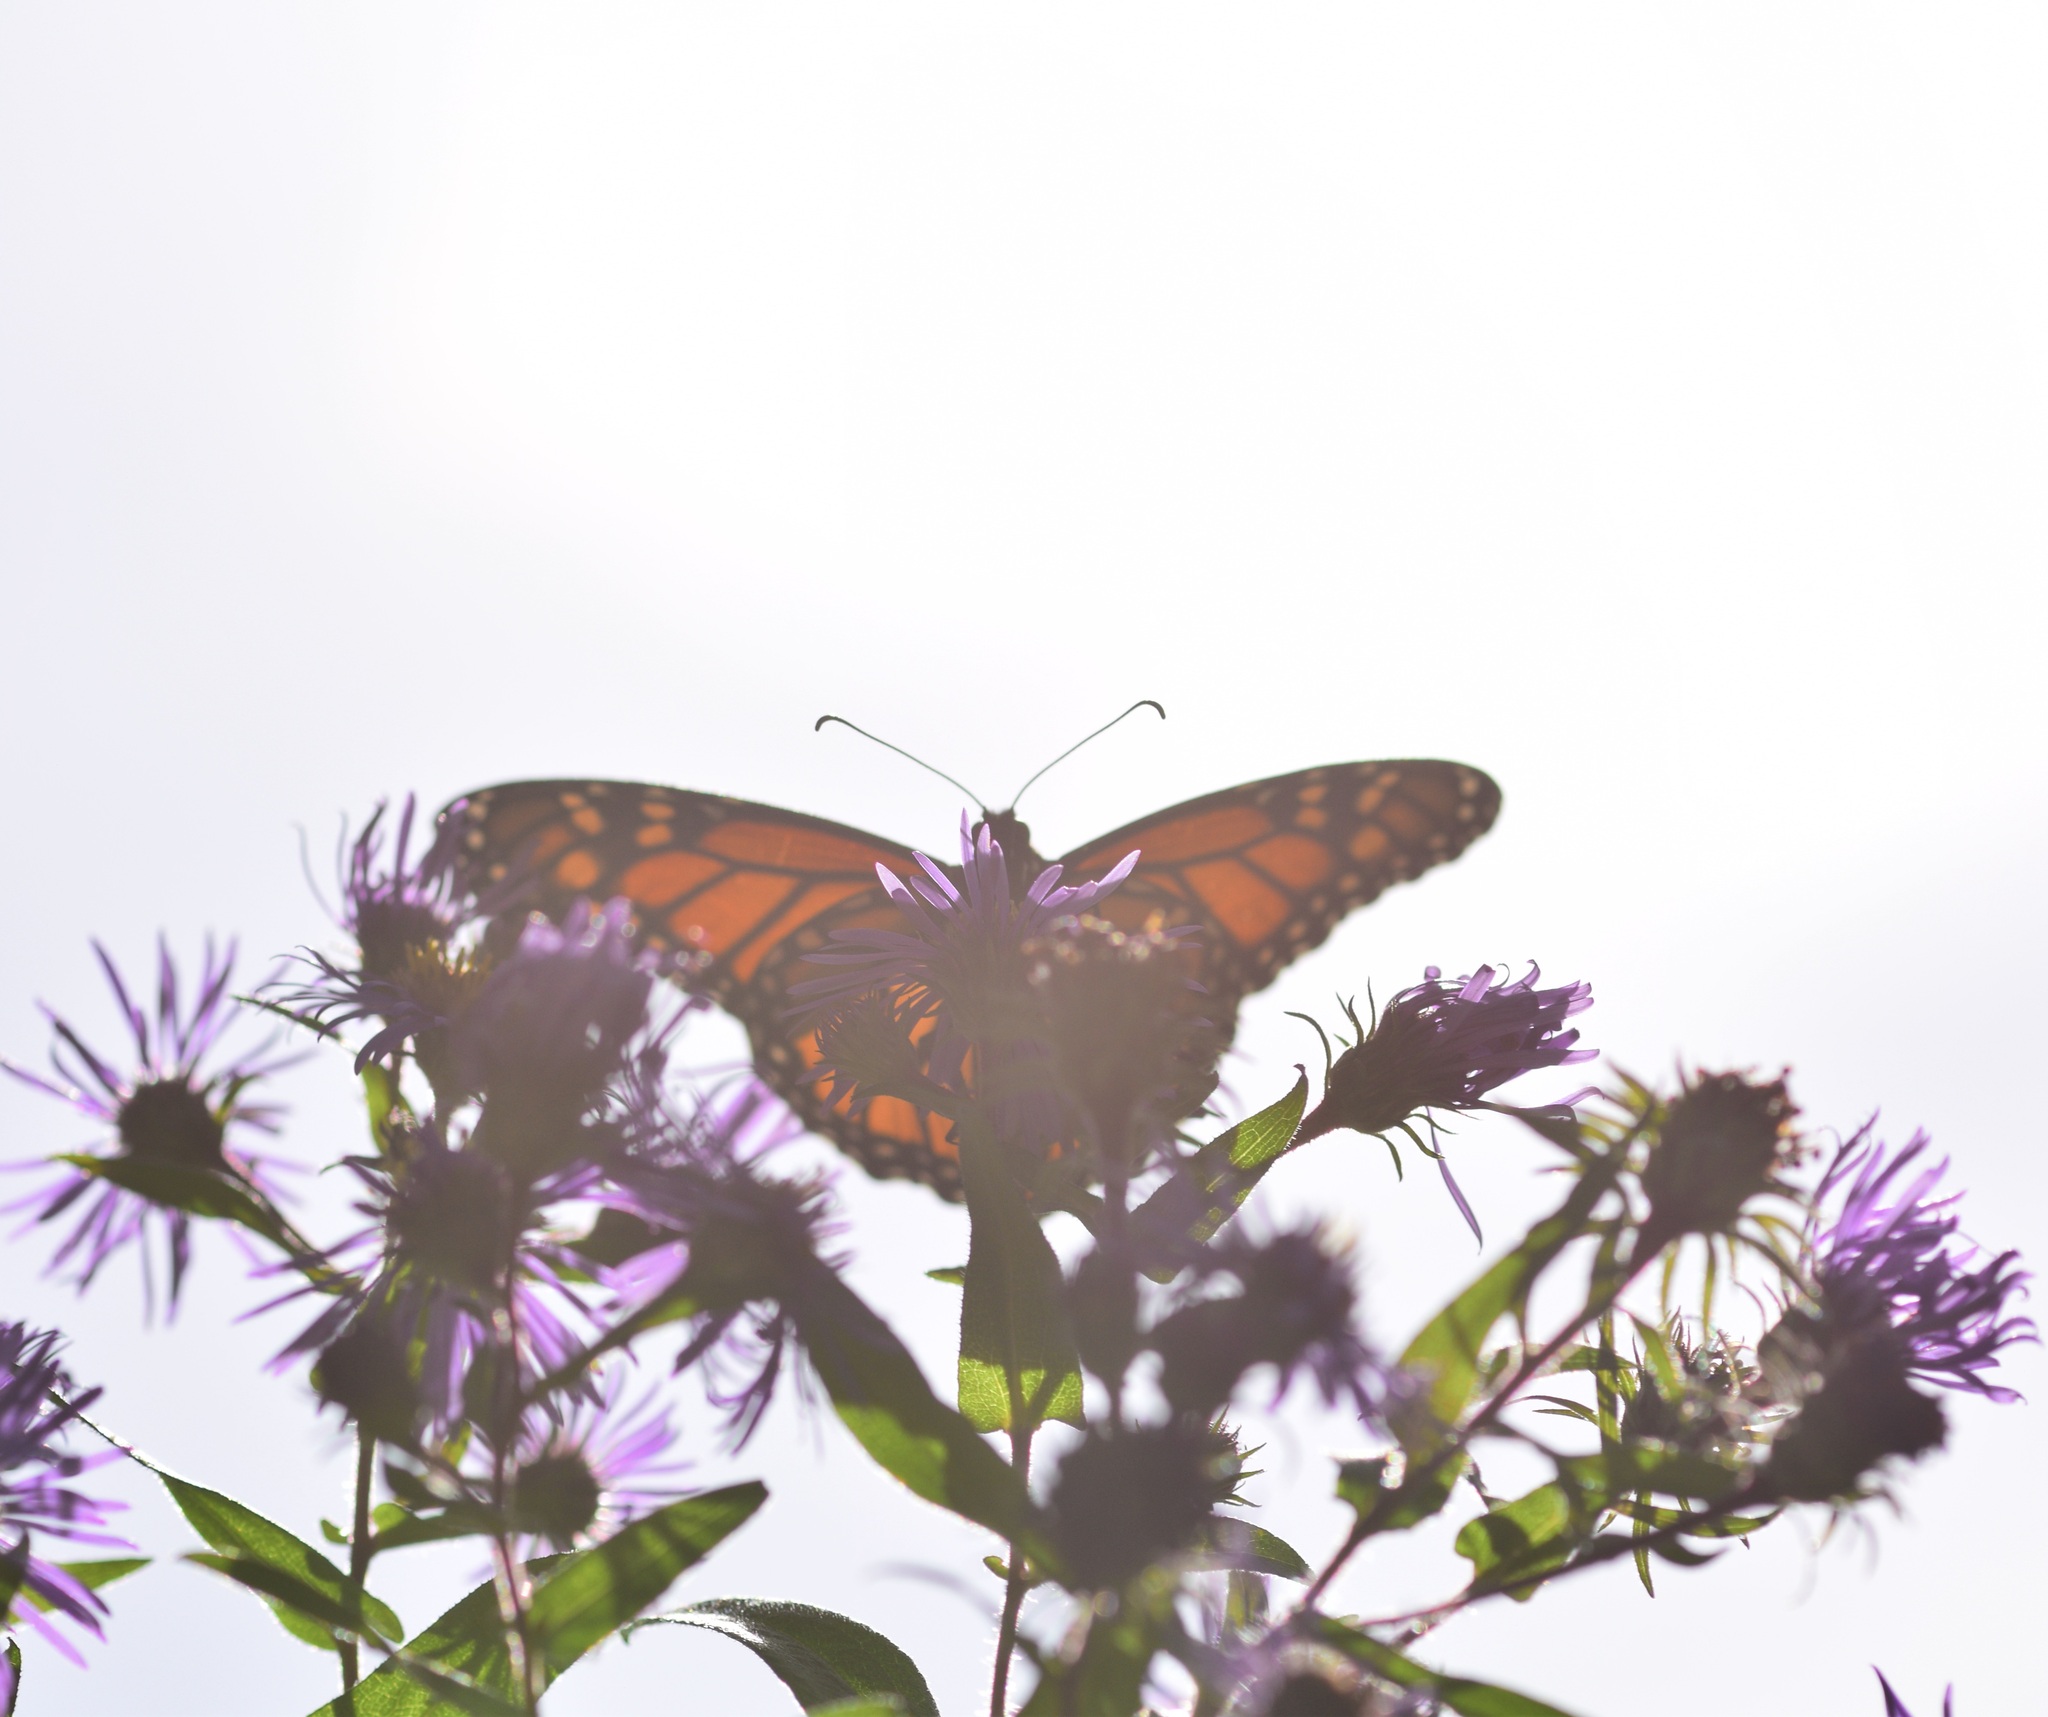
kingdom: Animalia
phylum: Arthropoda
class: Insecta
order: Lepidoptera
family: Nymphalidae
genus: Danaus
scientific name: Danaus plexippus
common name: Monarch
